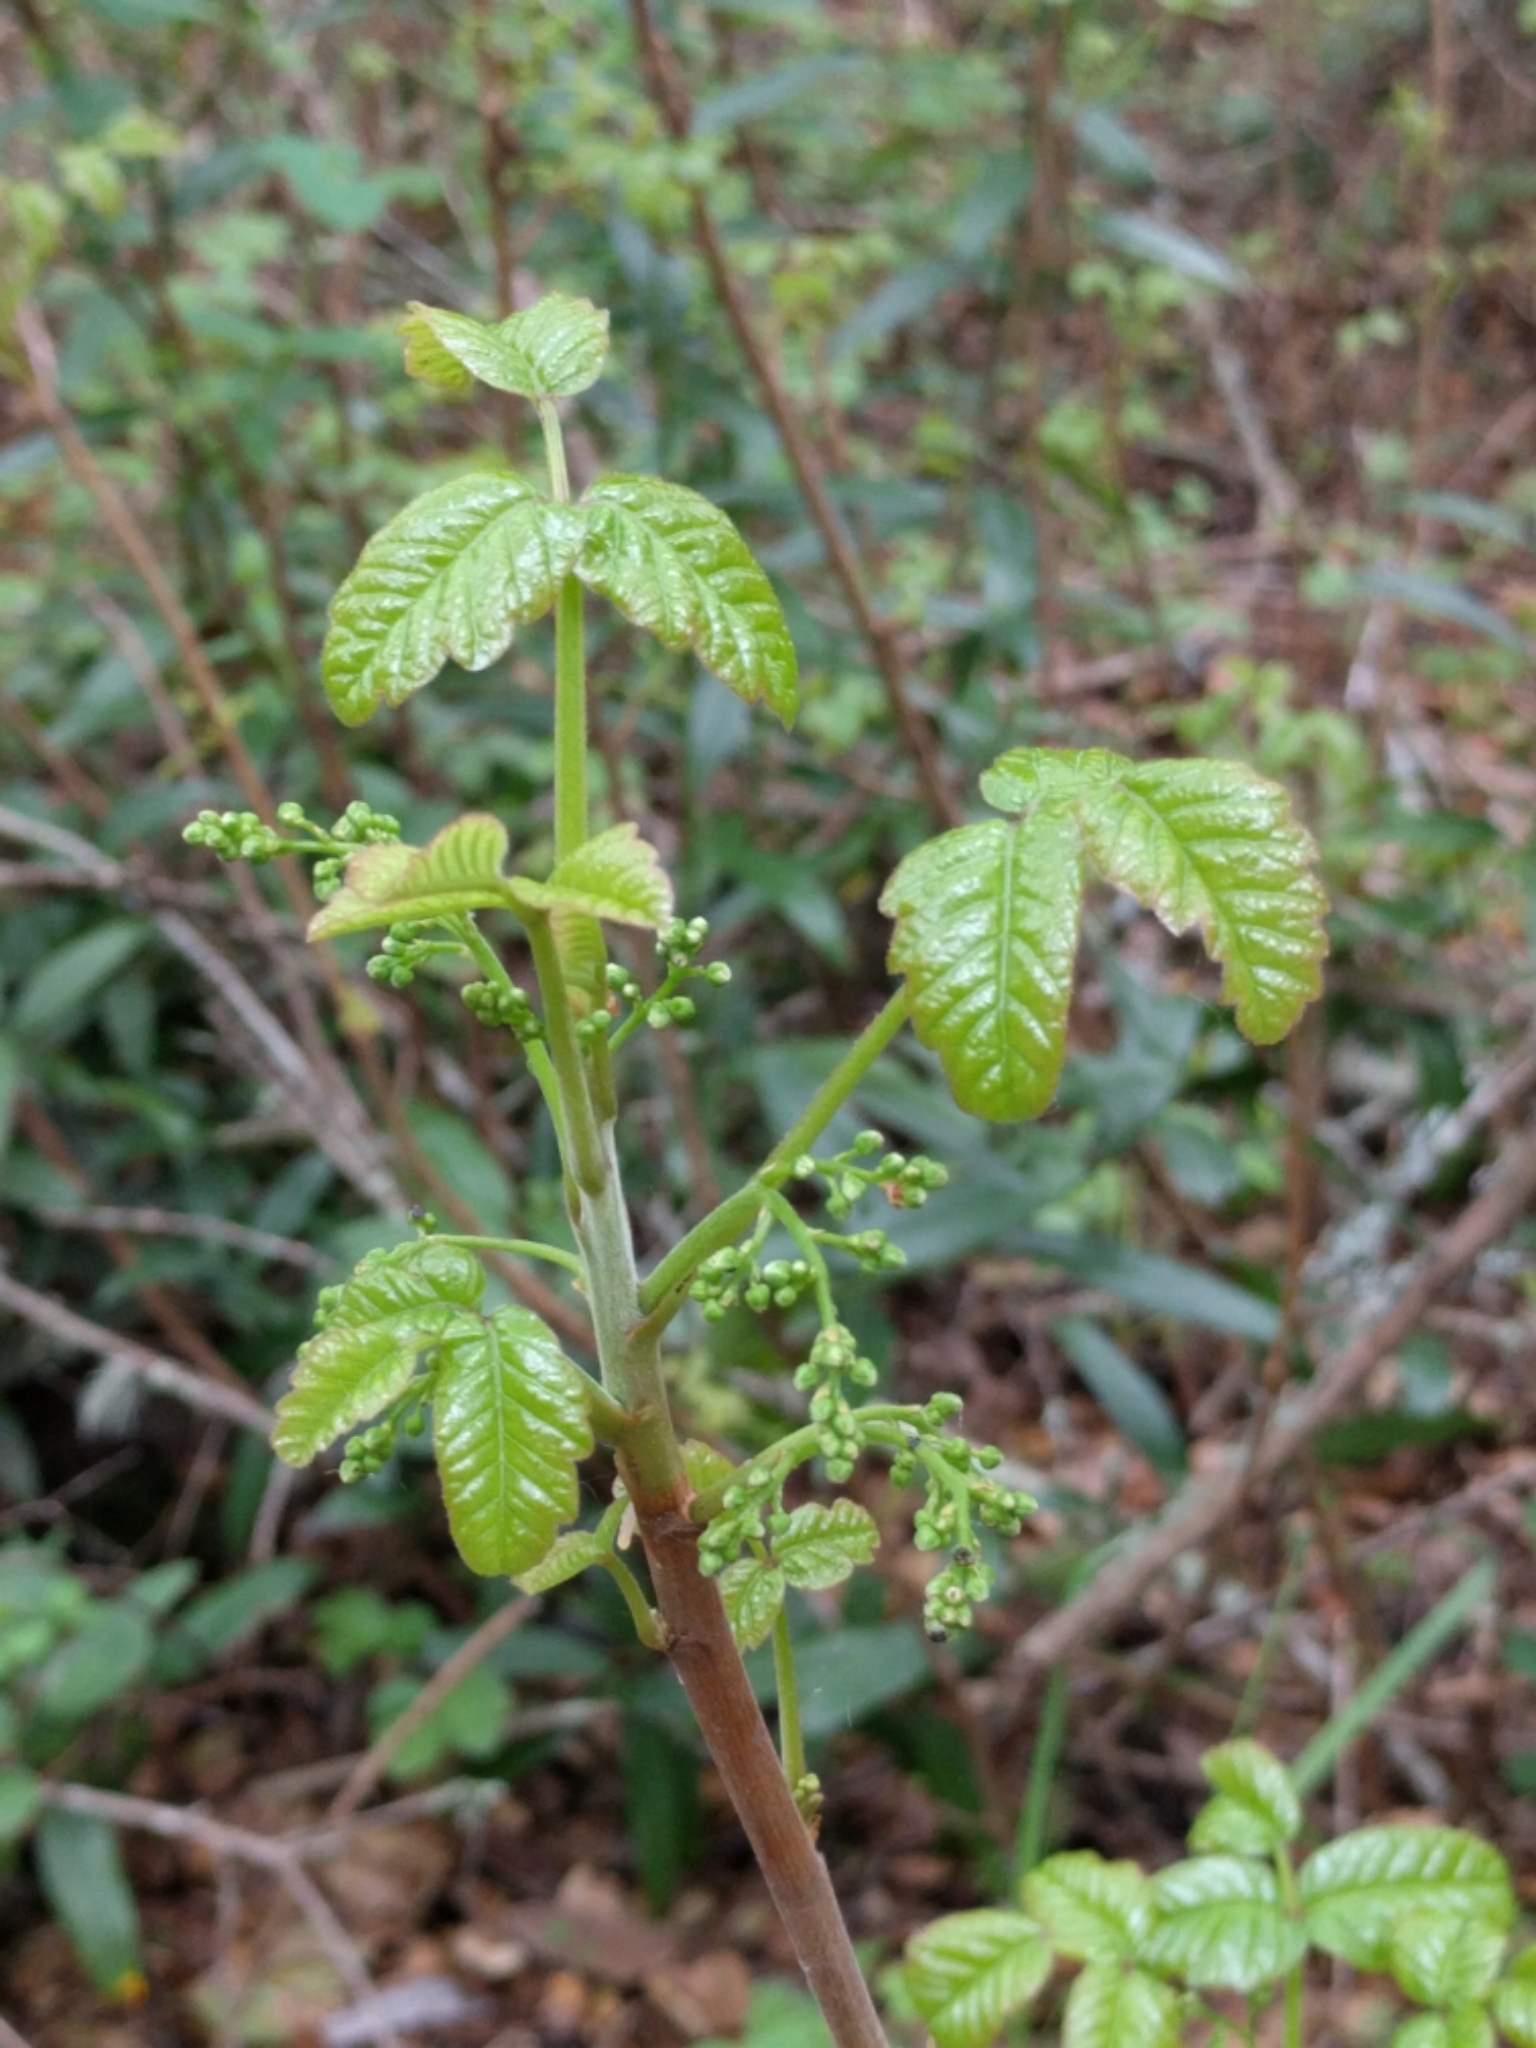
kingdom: Plantae
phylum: Tracheophyta
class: Magnoliopsida
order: Sapindales
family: Anacardiaceae
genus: Toxicodendron
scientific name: Toxicodendron diversilobum
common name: Pacific poison-oak
